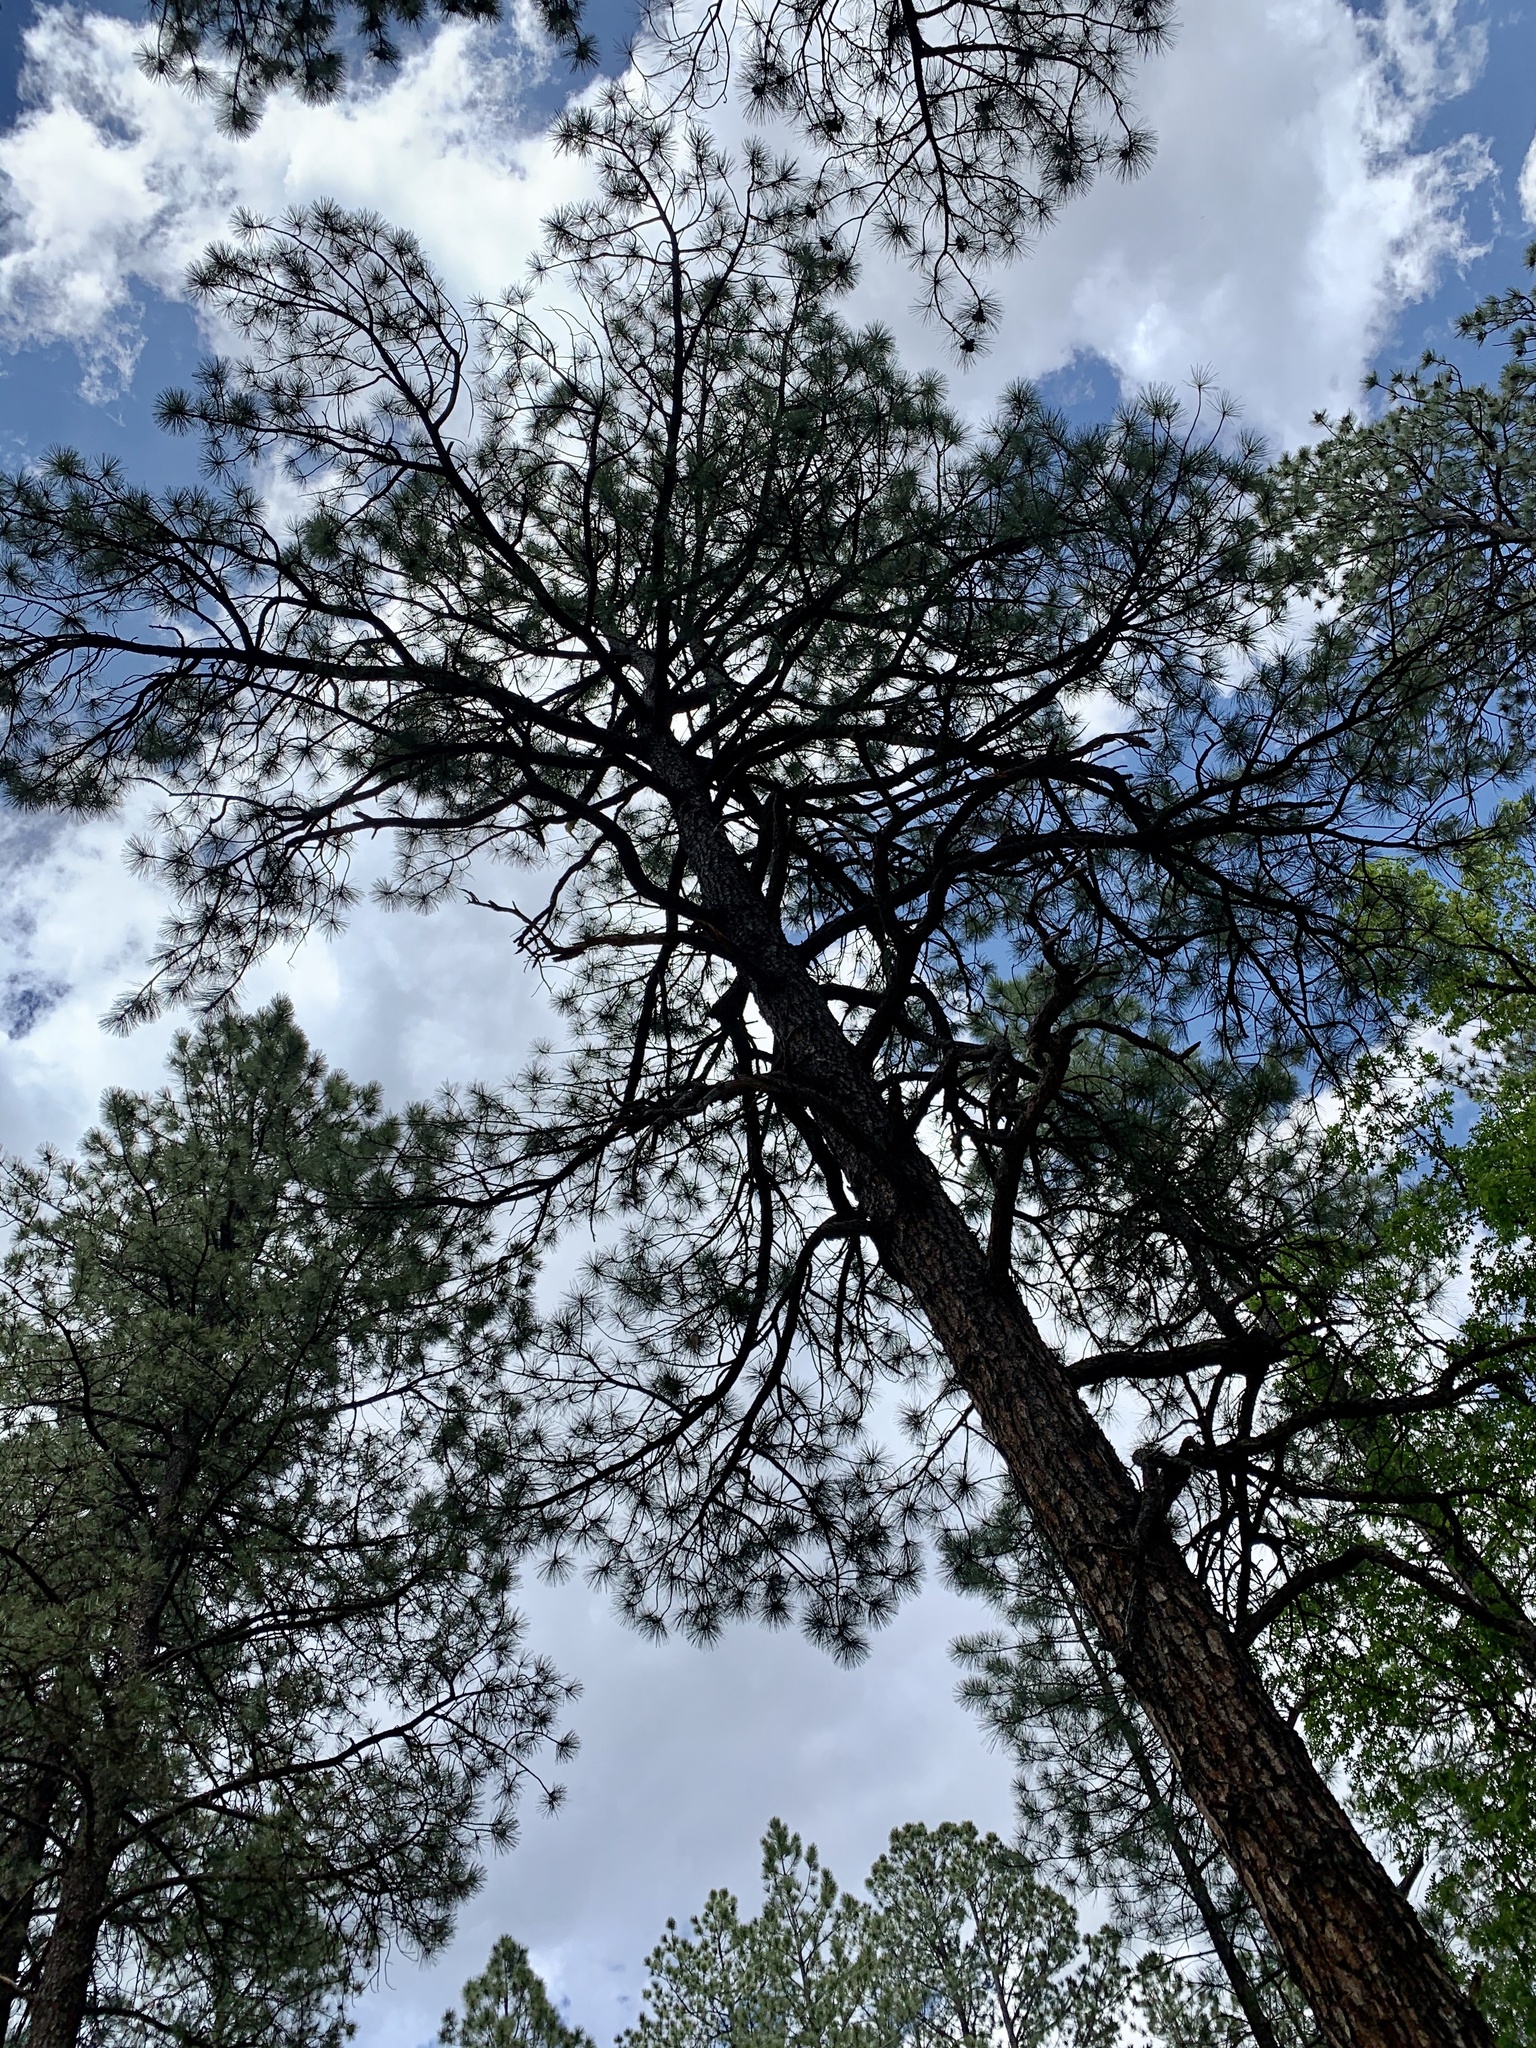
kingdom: Plantae
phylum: Tracheophyta
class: Pinopsida
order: Pinales
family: Pinaceae
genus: Pinus
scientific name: Pinus ponderosa
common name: Western yellow-pine
